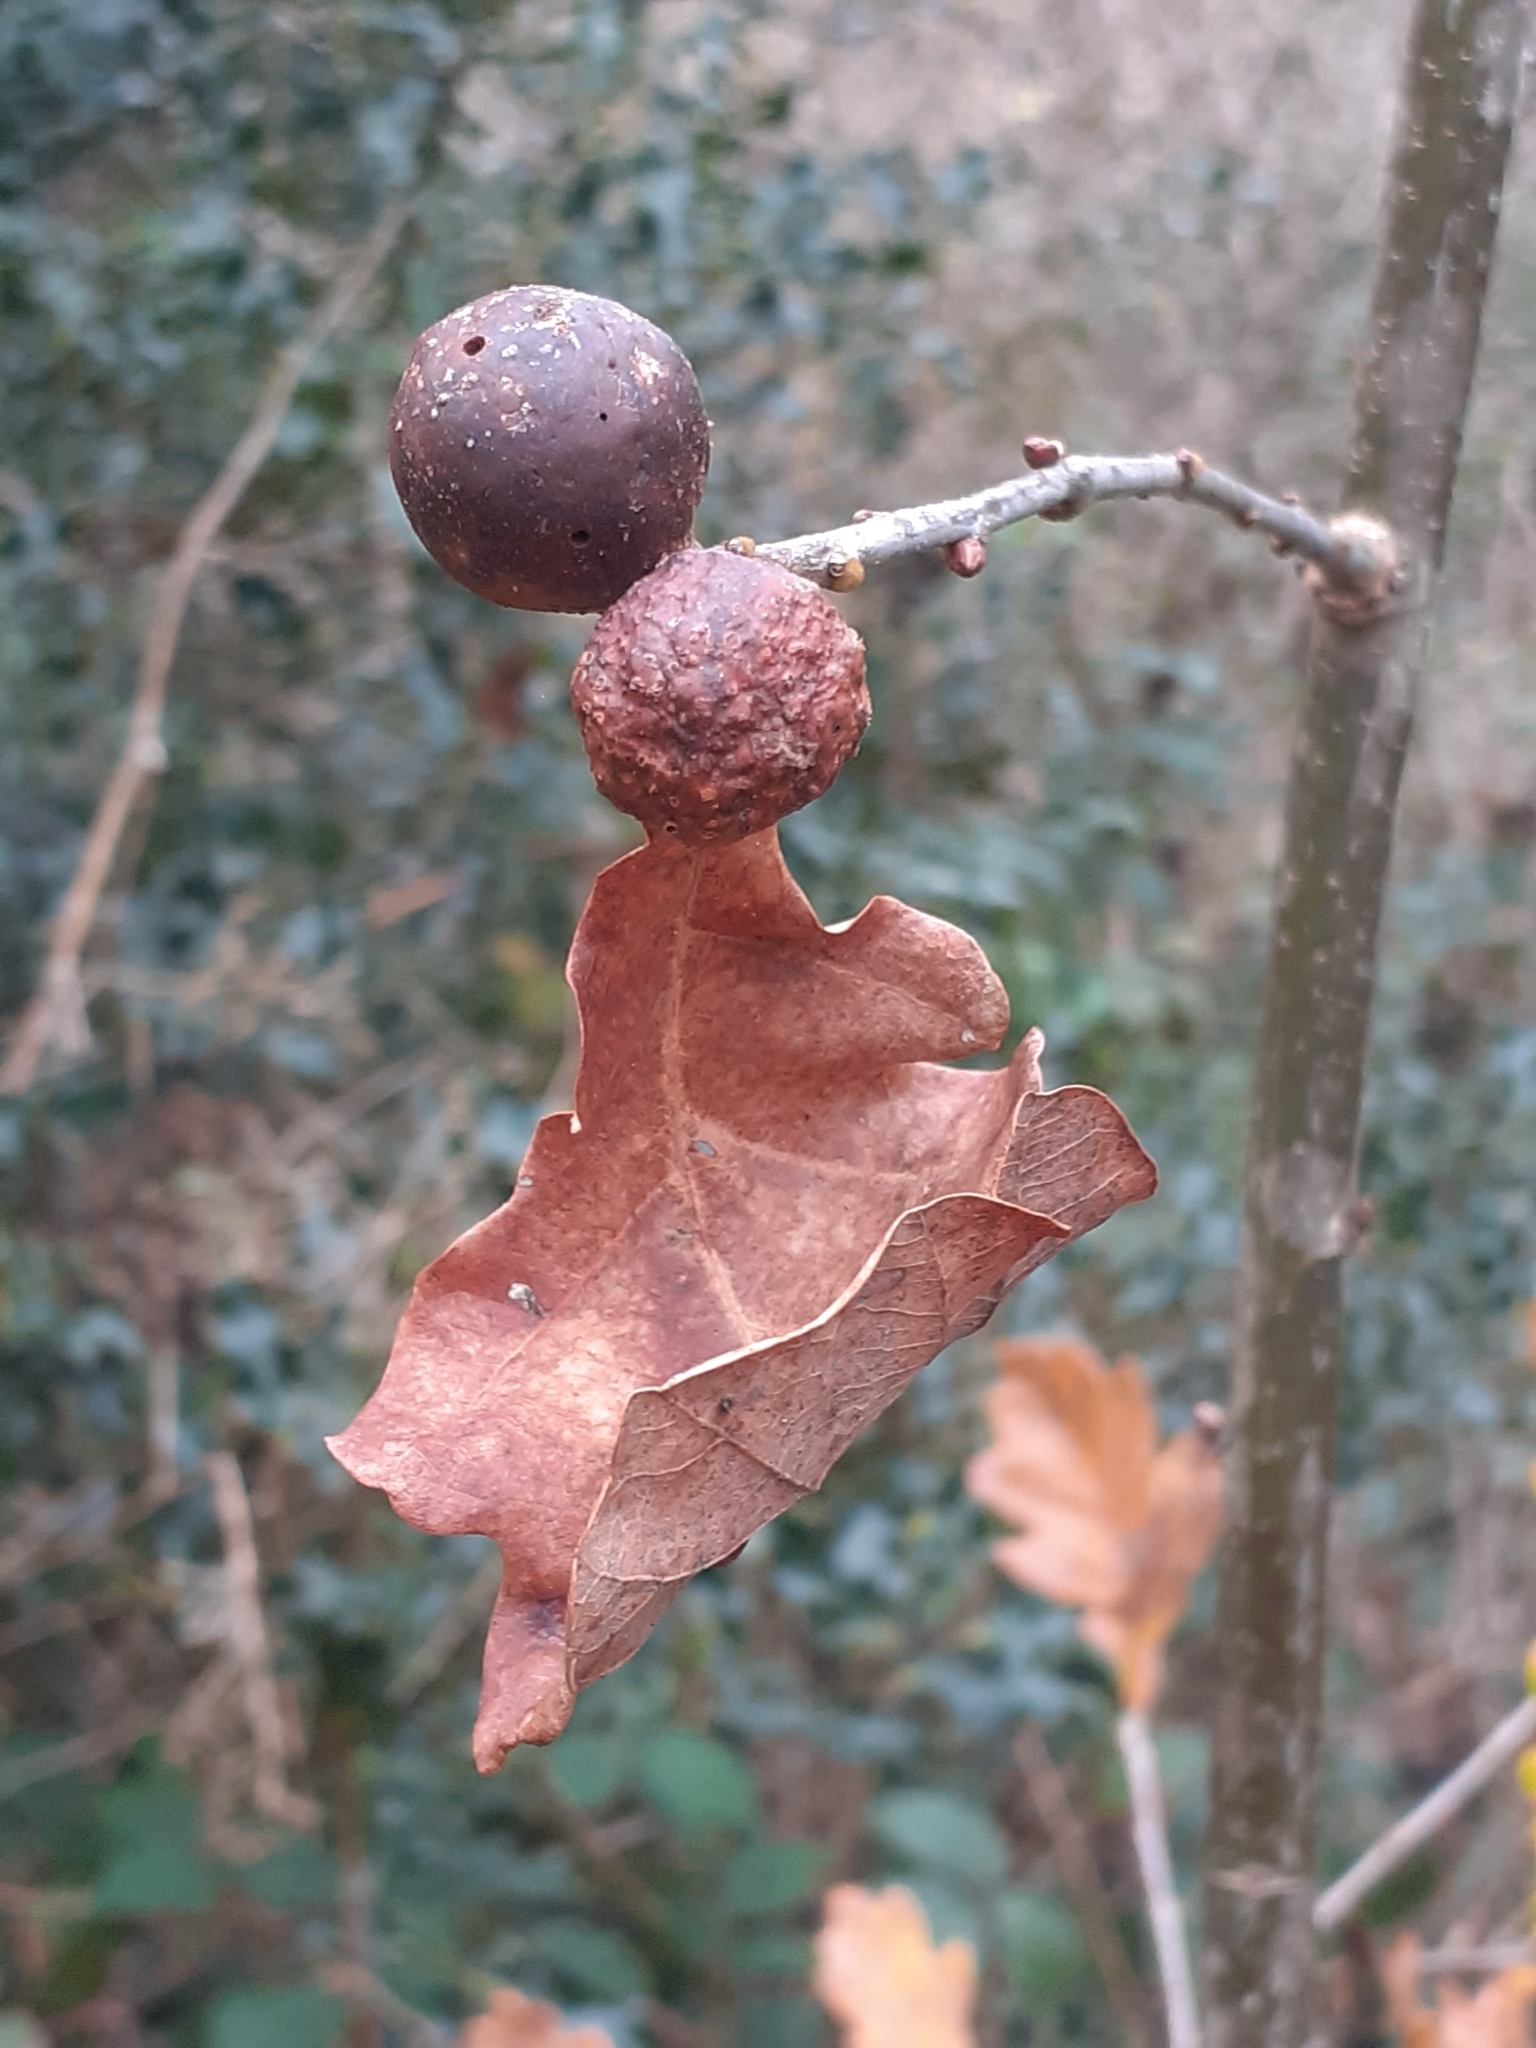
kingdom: Animalia
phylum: Arthropoda
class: Insecta
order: Hymenoptera
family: Cynipidae
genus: Andricus
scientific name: Andricus kollari
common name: Marble gall
